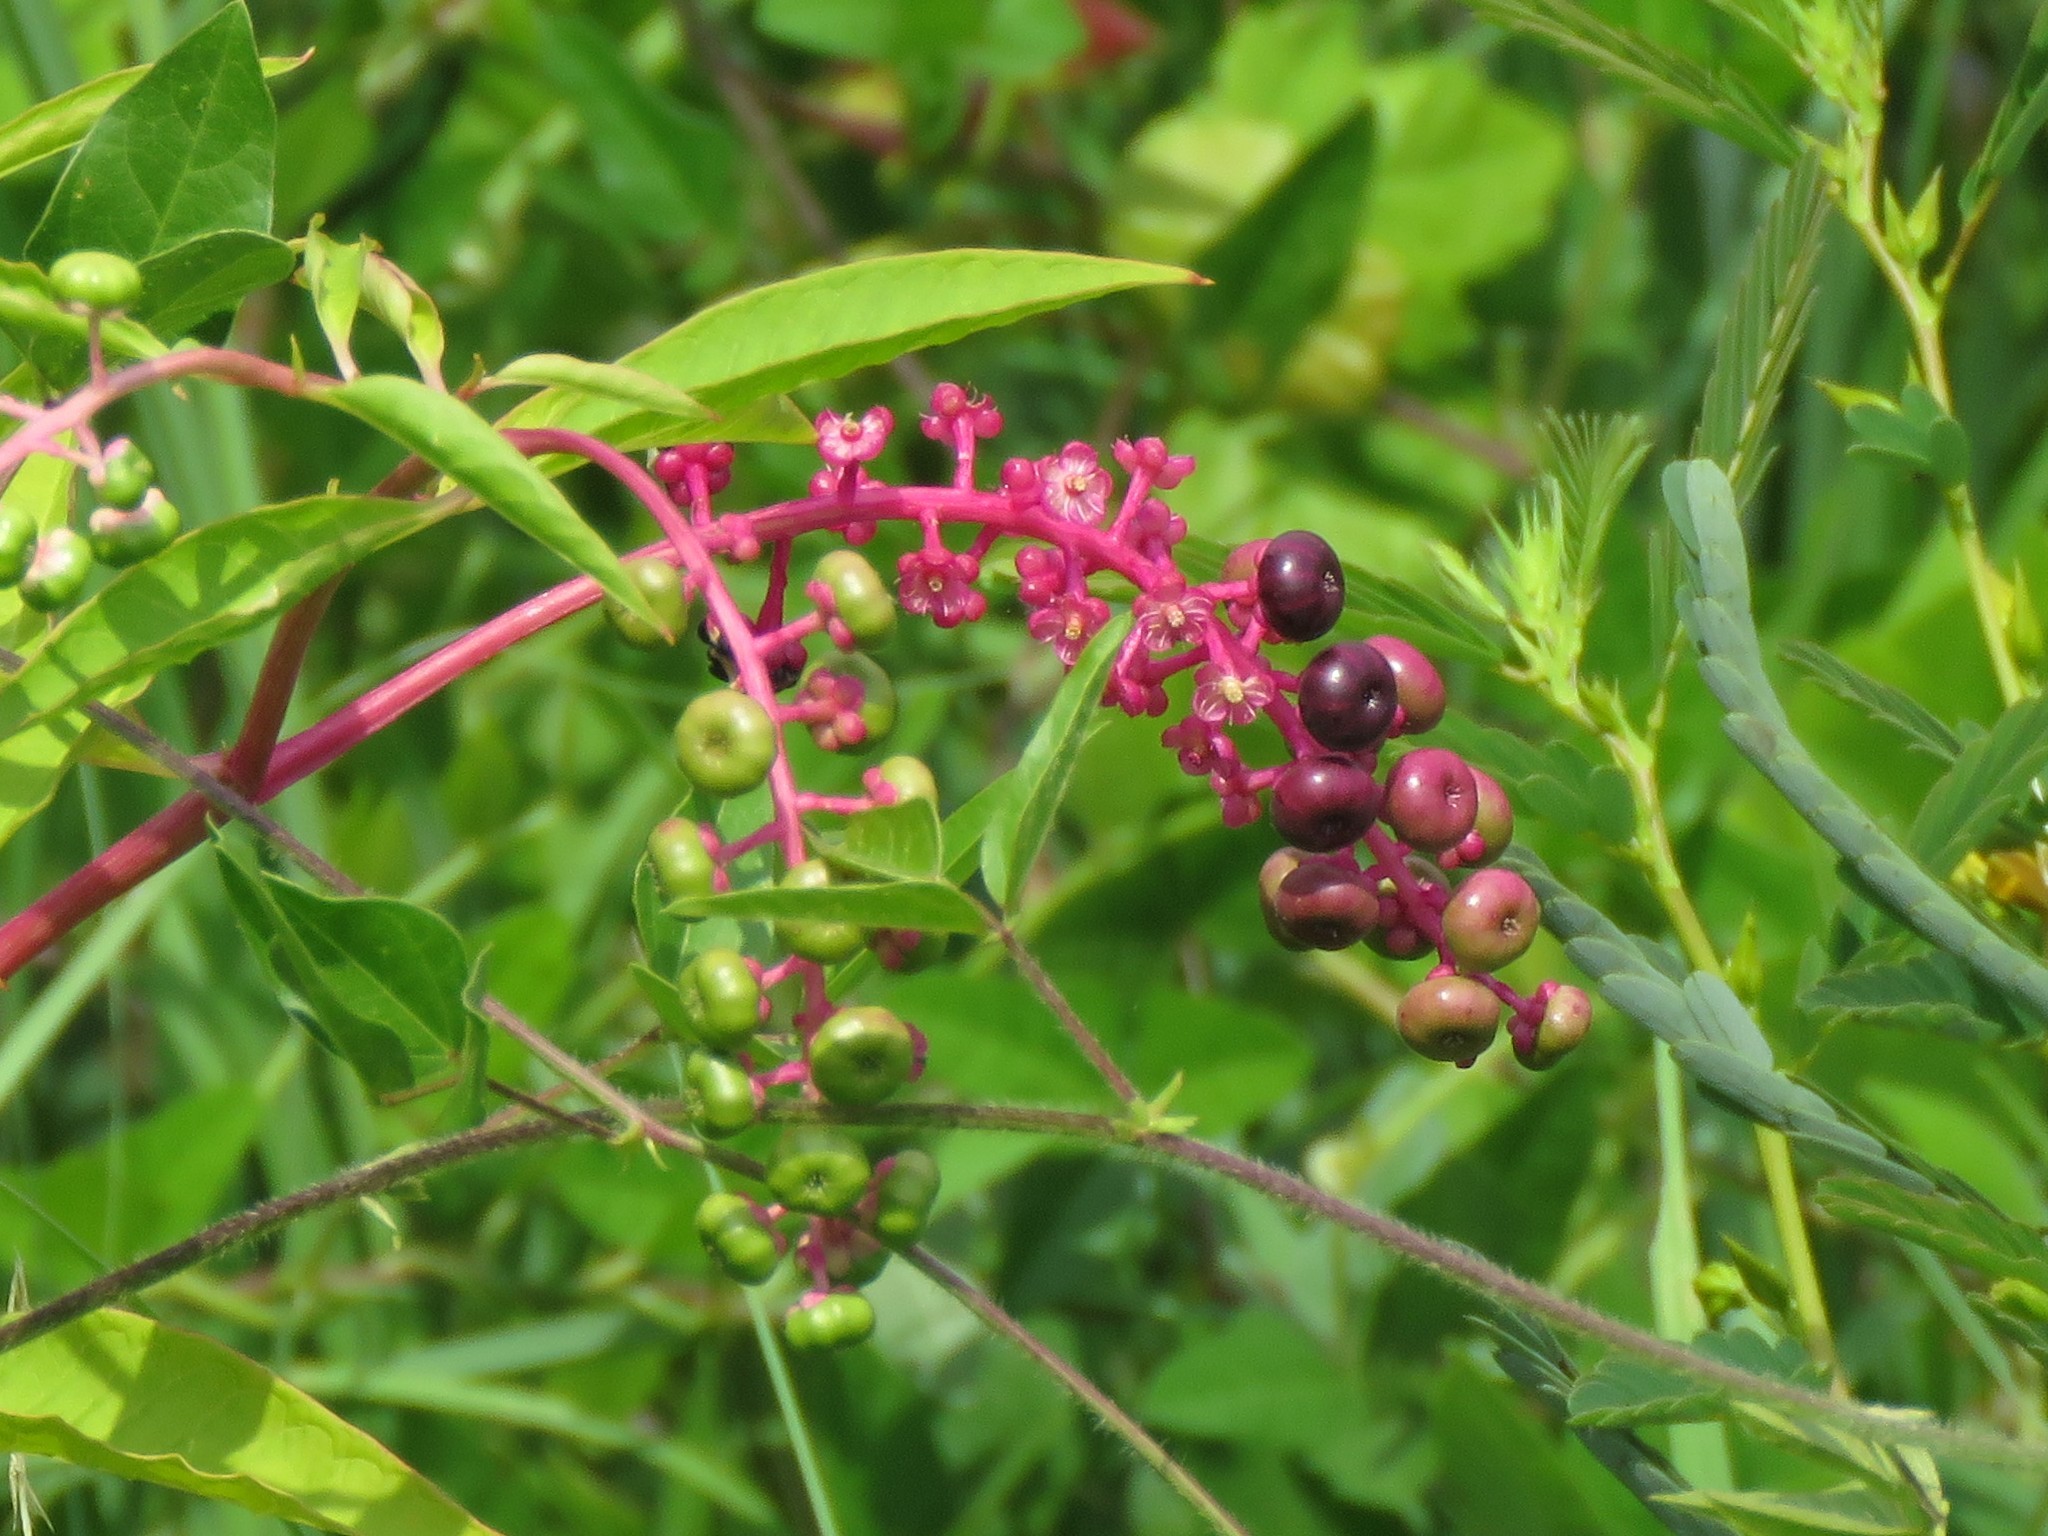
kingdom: Plantae
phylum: Tracheophyta
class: Magnoliopsida
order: Caryophyllales
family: Phytolaccaceae
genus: Phytolacca
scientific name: Phytolacca americana
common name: American pokeweed
